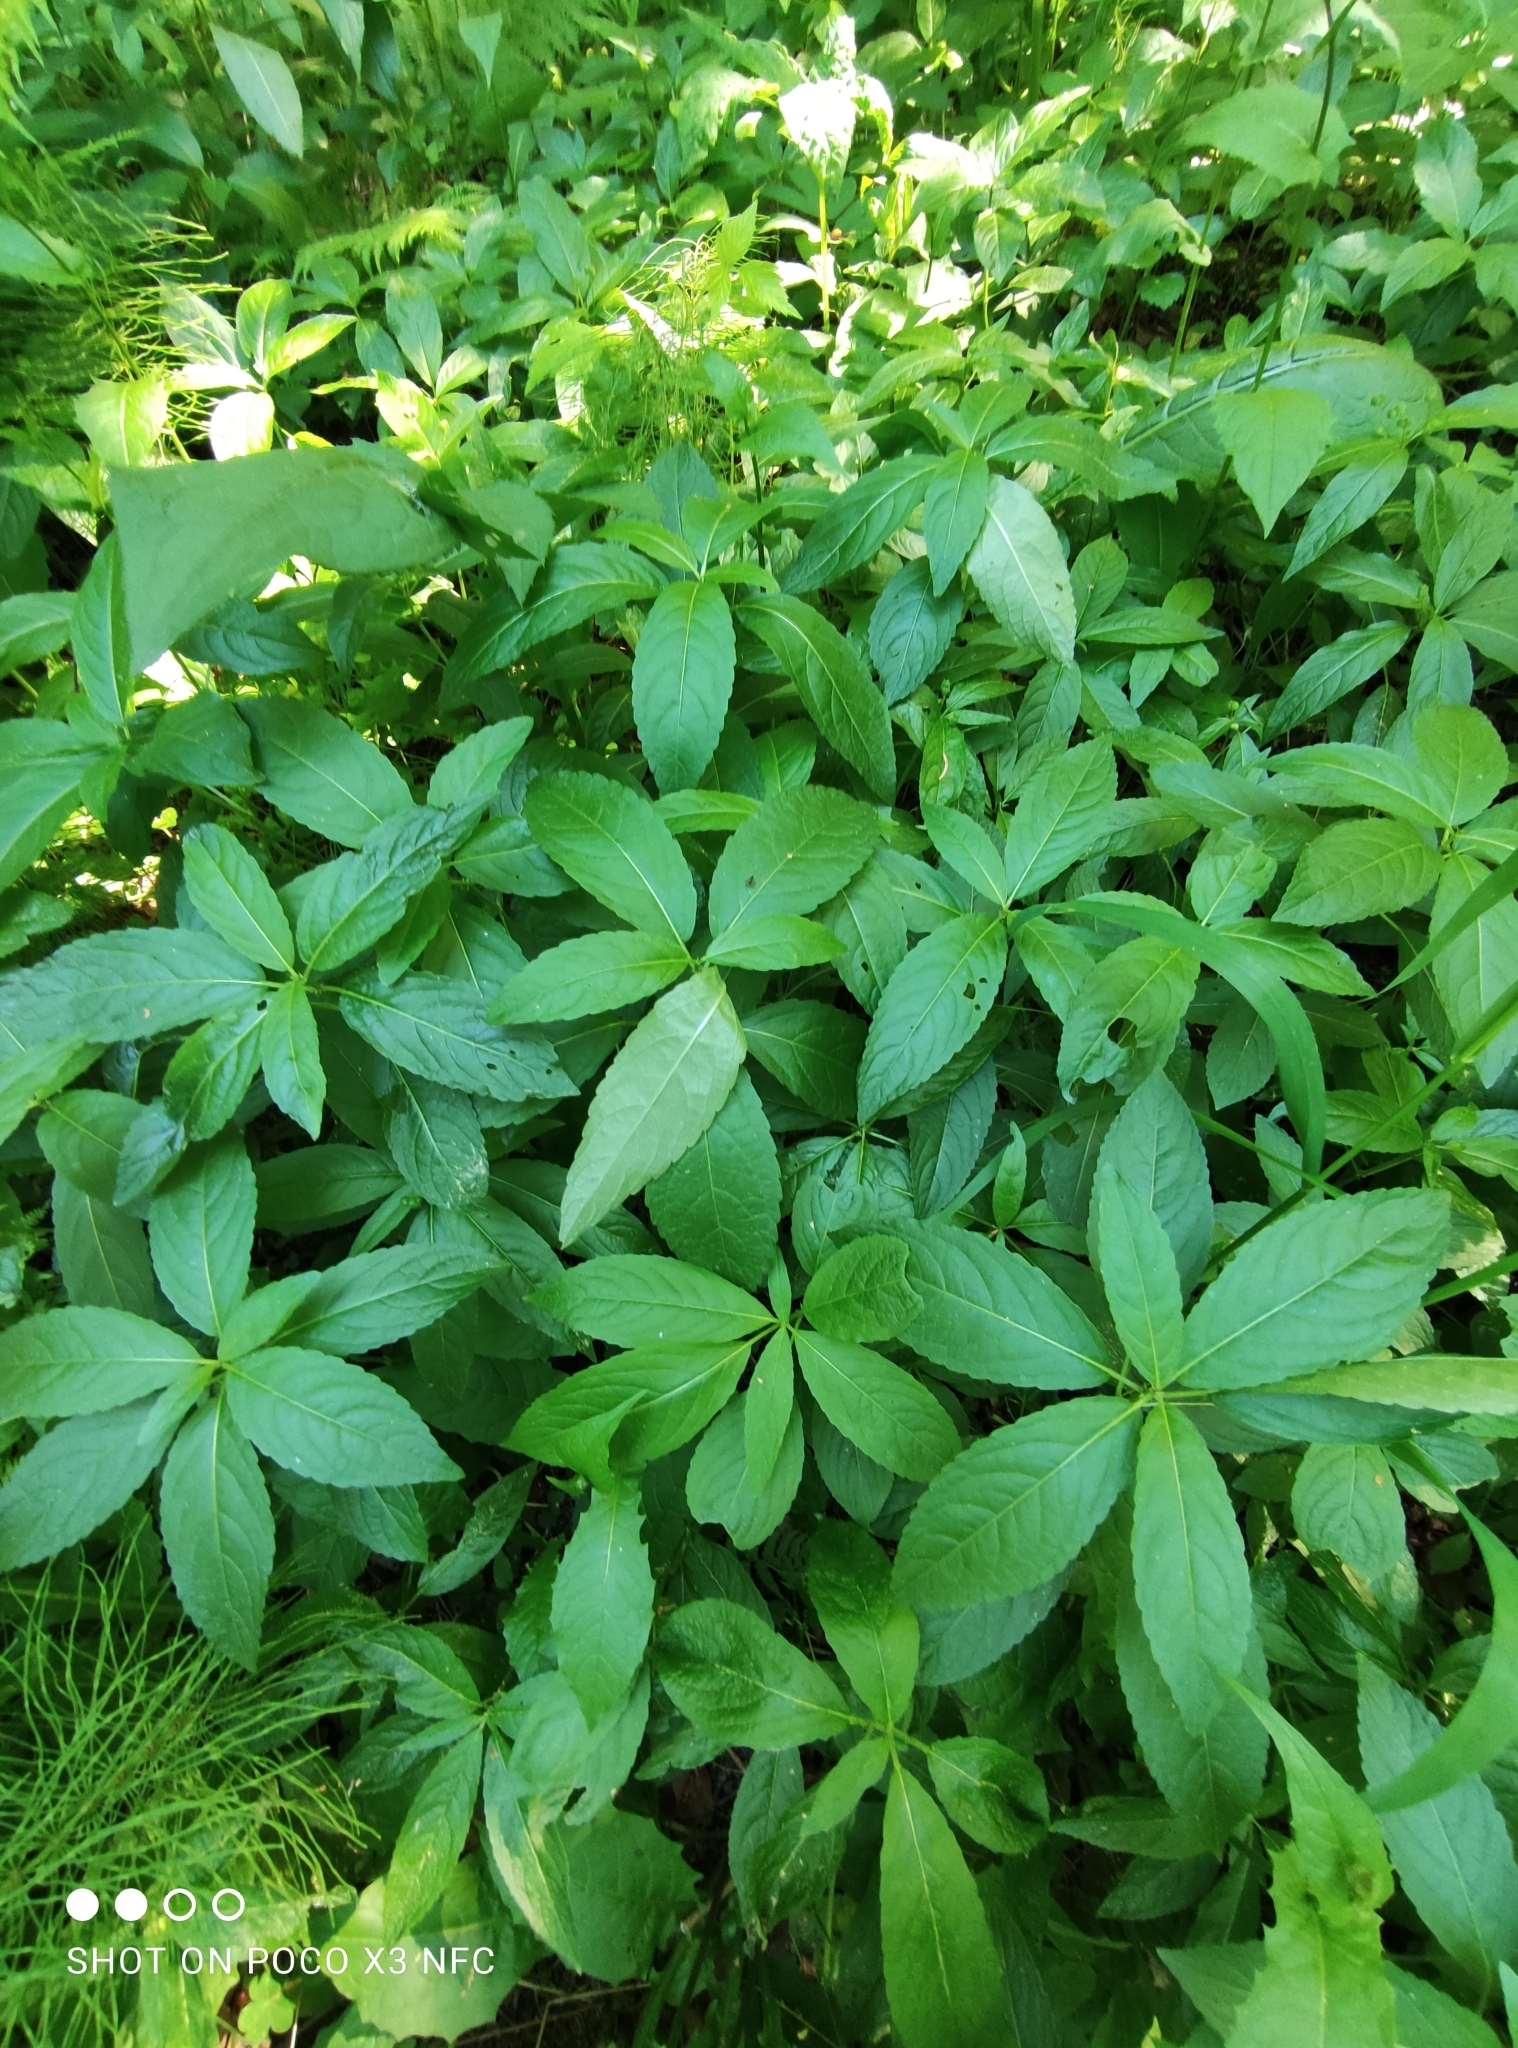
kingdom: Plantae
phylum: Tracheophyta
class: Magnoliopsida
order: Malpighiales
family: Euphorbiaceae
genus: Mercurialis
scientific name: Mercurialis perennis
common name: Dog mercury
